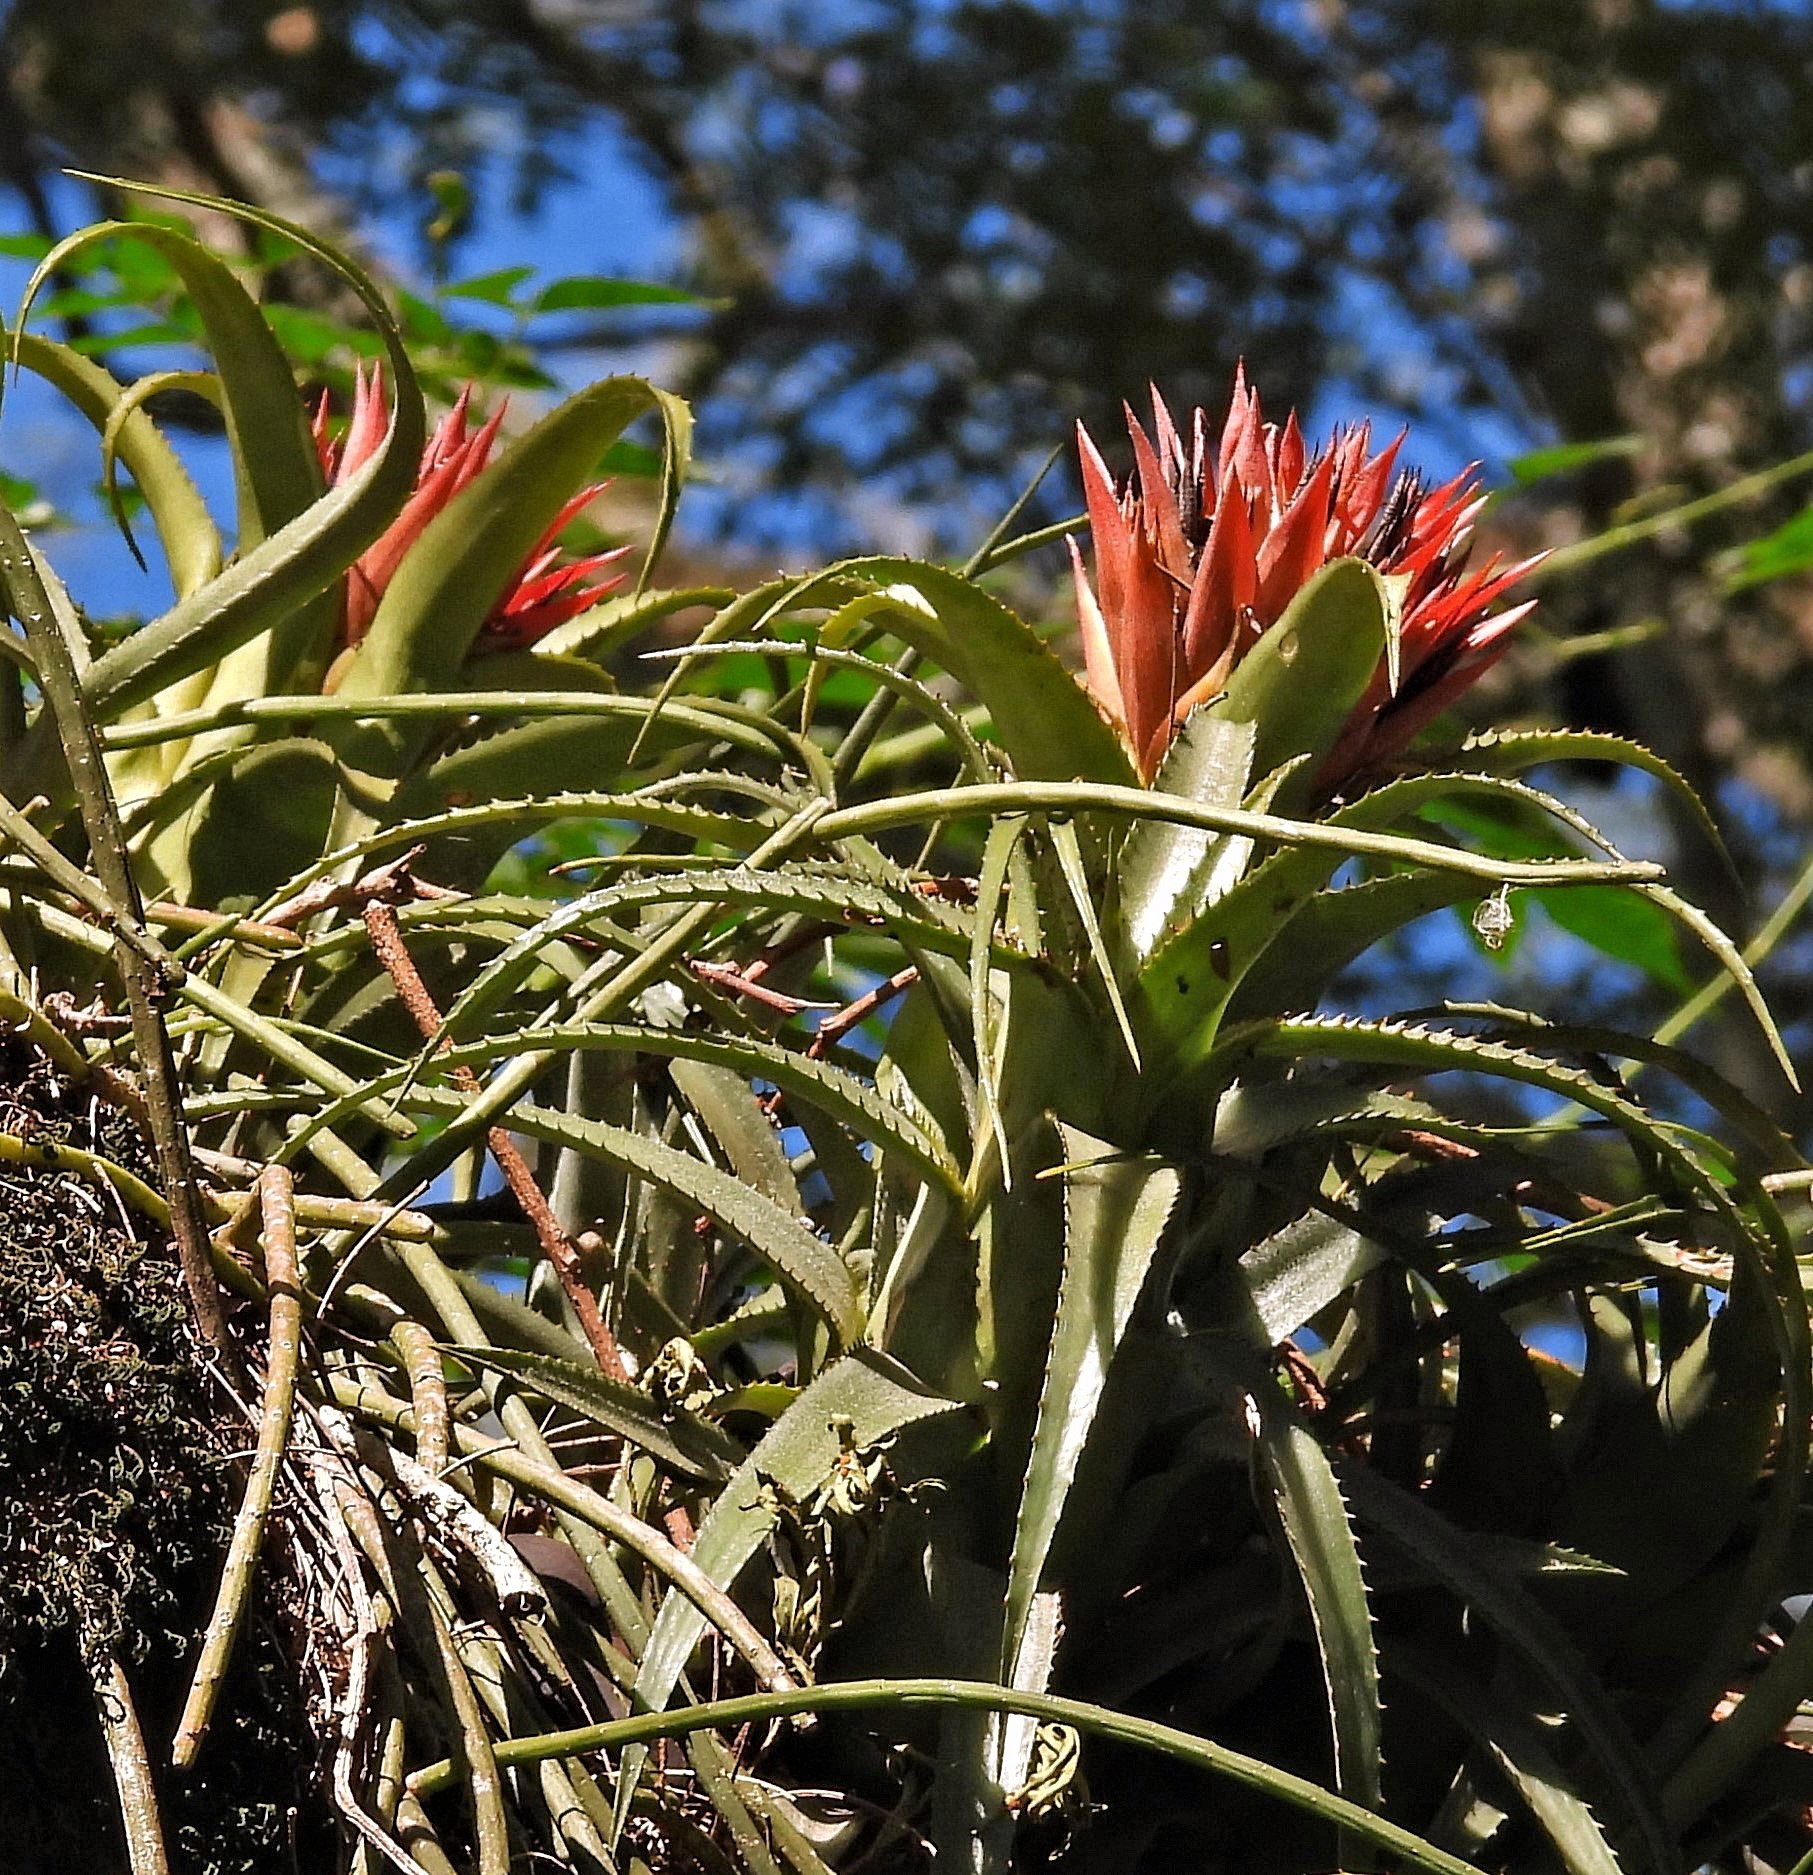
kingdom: Plantae
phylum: Tracheophyta
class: Liliopsida
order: Poales
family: Bromeliaceae
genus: Aechmea
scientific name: Aechmea recurvata
